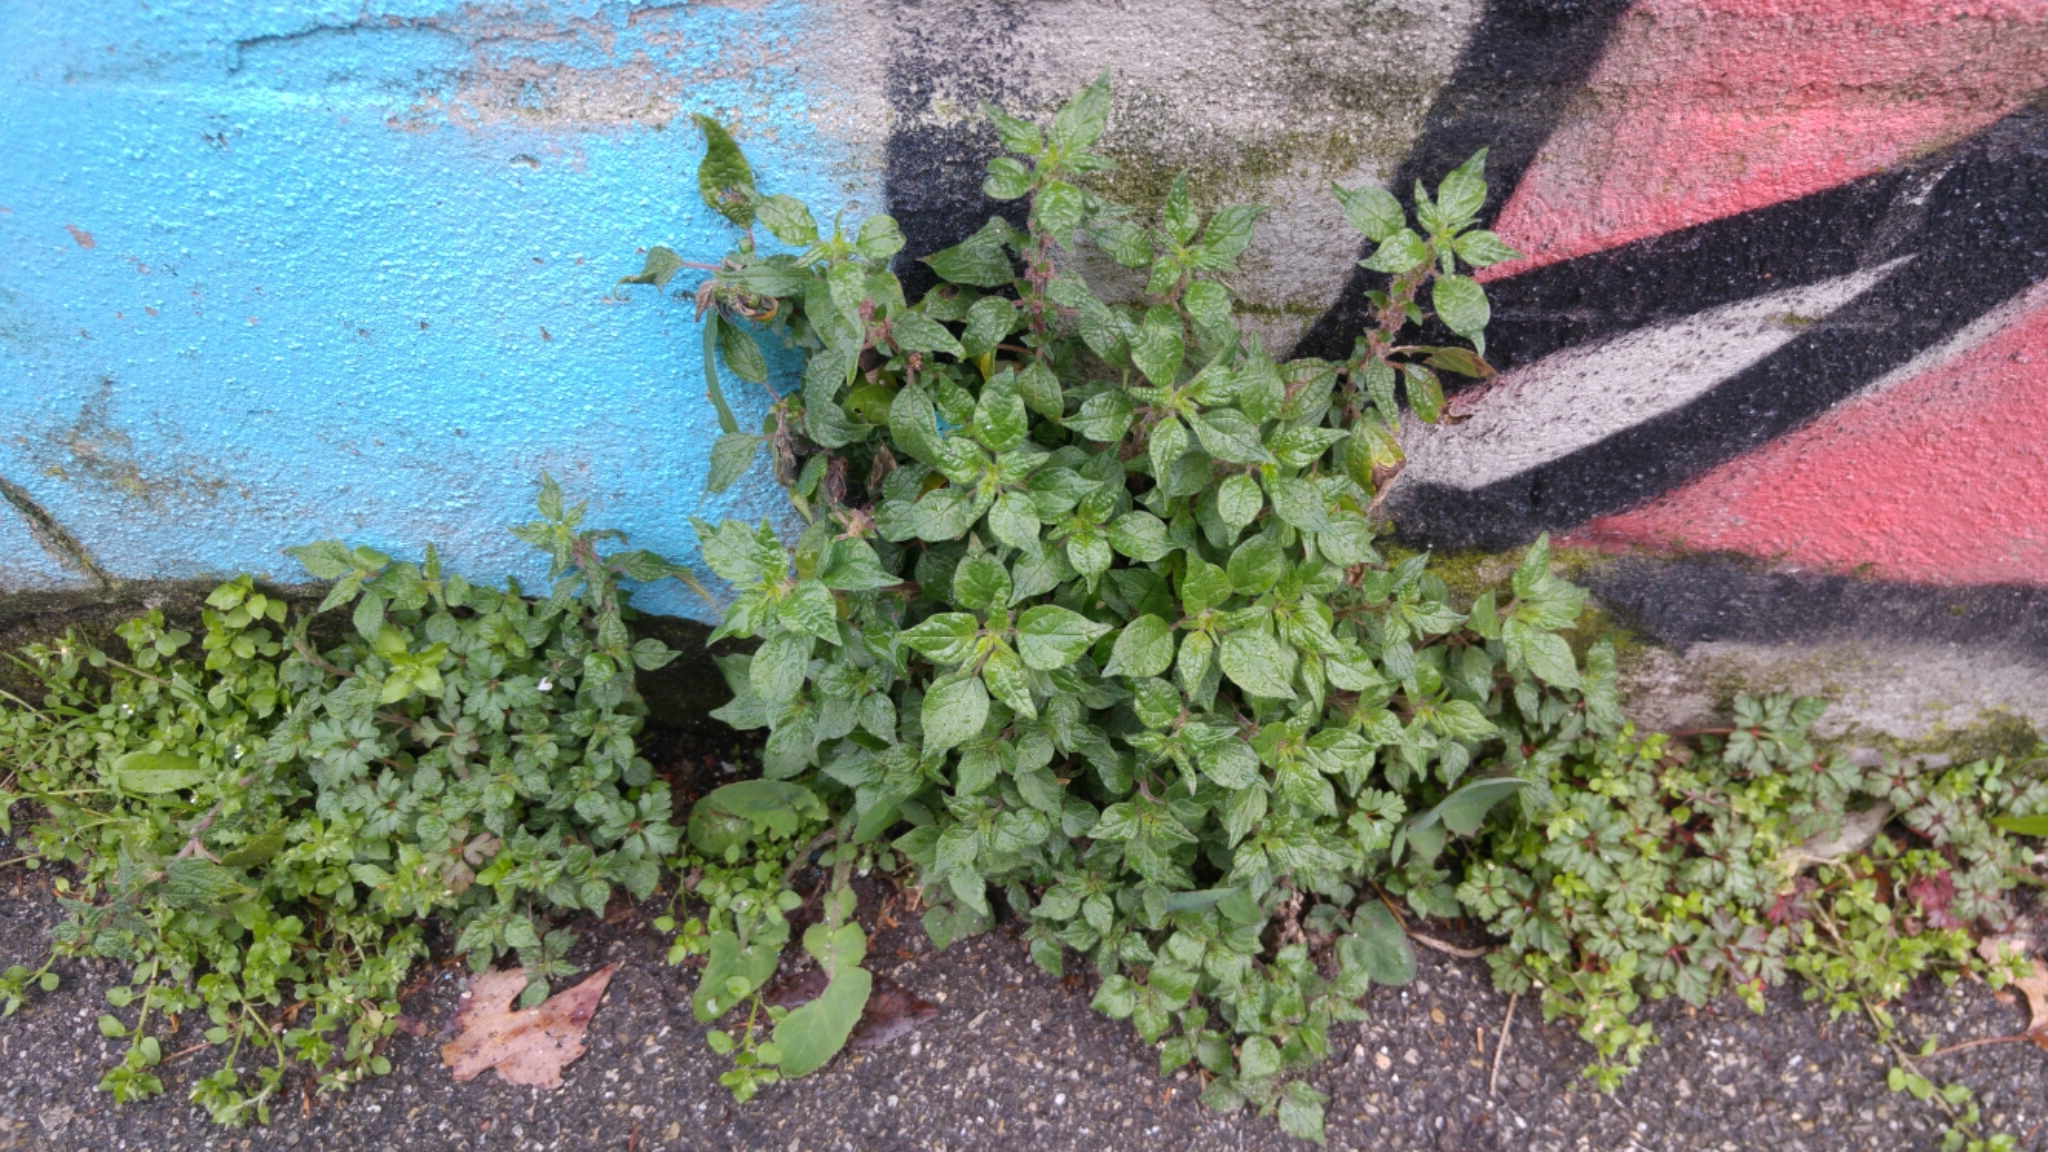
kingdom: Plantae
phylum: Tracheophyta
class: Magnoliopsida
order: Rosales
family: Urticaceae
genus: Parietaria
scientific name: Parietaria officinalis
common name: Eastern pellitory-of-the-wall
